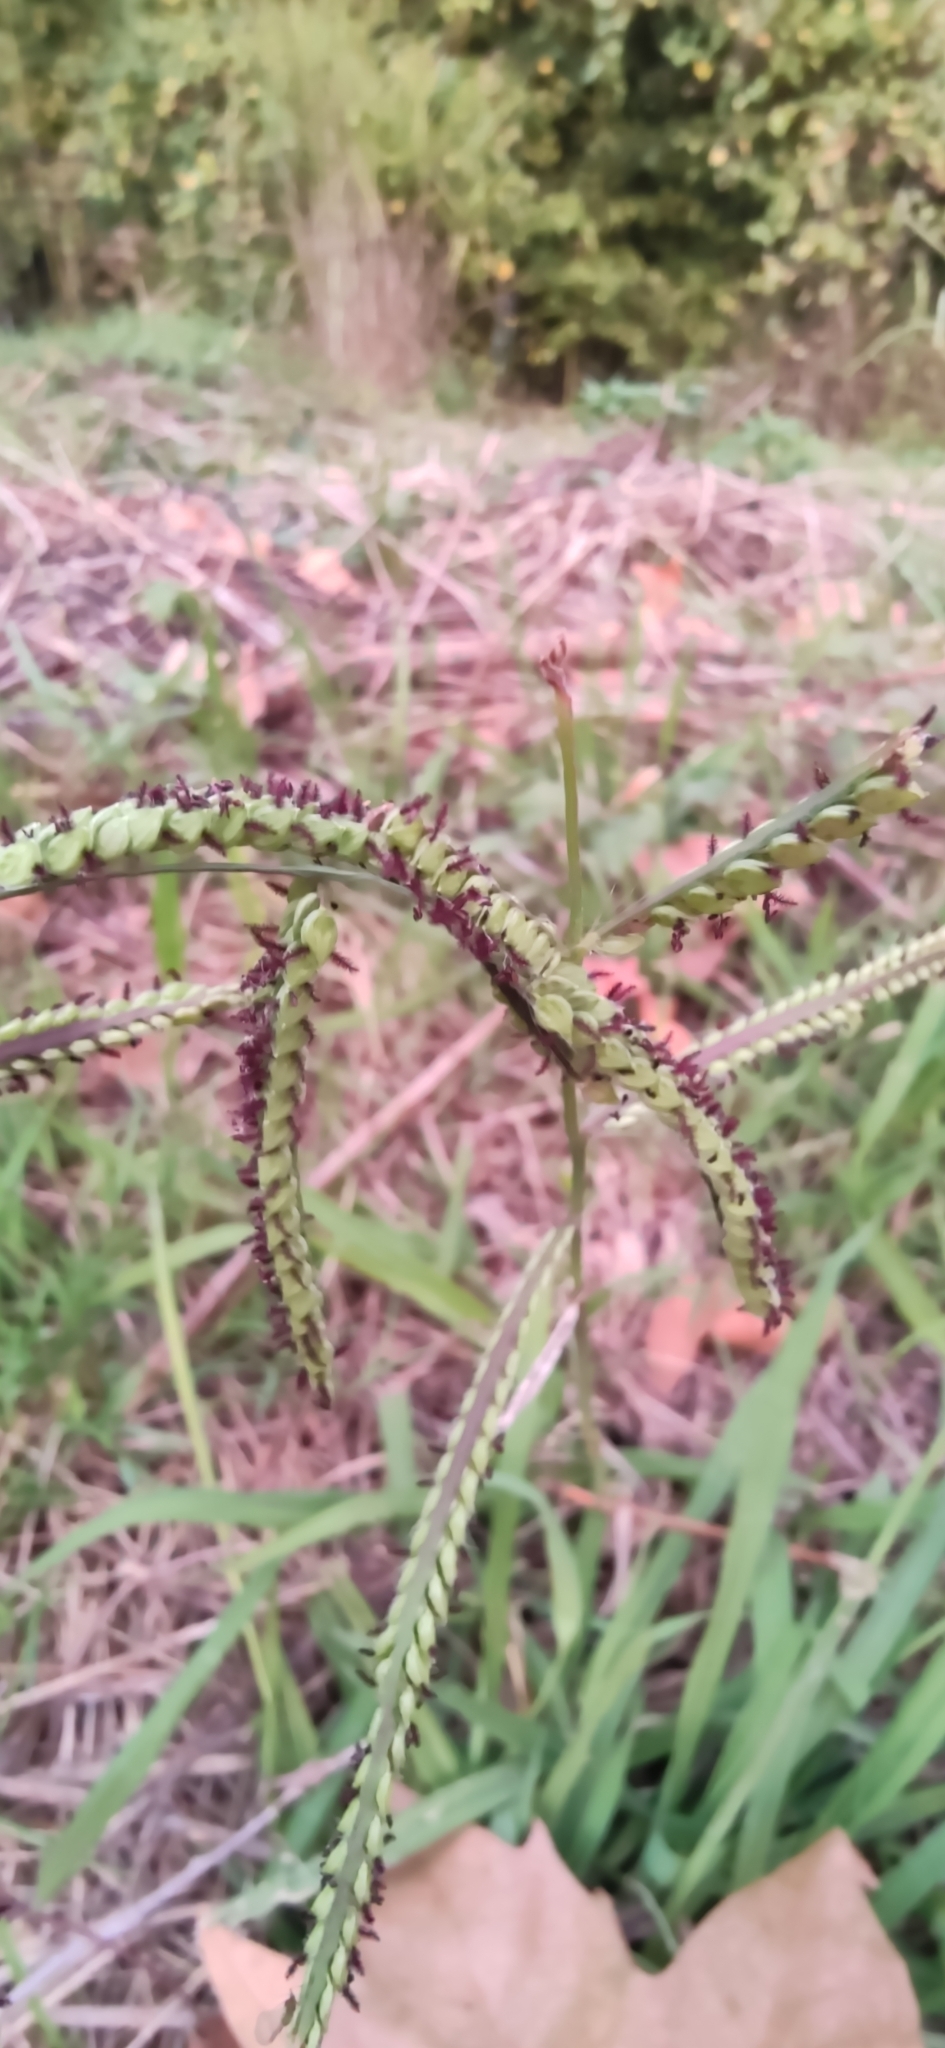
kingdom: Plantae
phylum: Tracheophyta
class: Liliopsida
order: Poales
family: Poaceae
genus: Paspalum
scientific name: Paspalum dilatatum
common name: Dallisgrass
